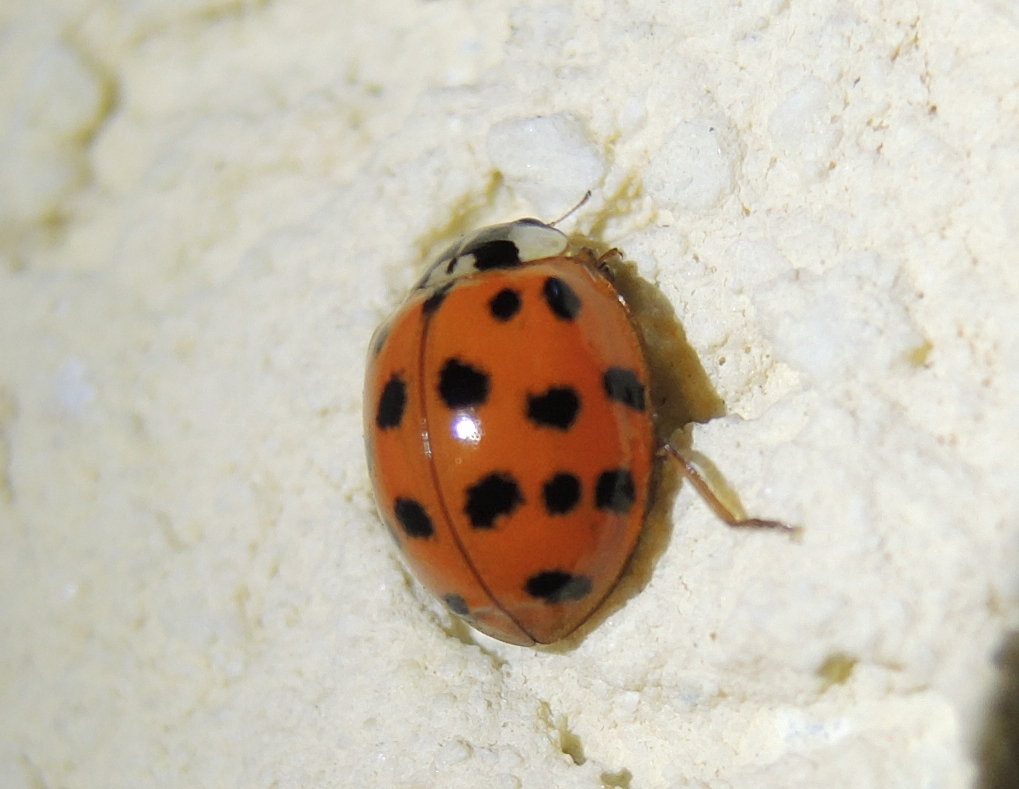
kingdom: Animalia
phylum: Arthropoda
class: Insecta
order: Coleoptera
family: Coccinellidae
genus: Harmonia
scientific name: Harmonia axyridis
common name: Harlequin ladybird
